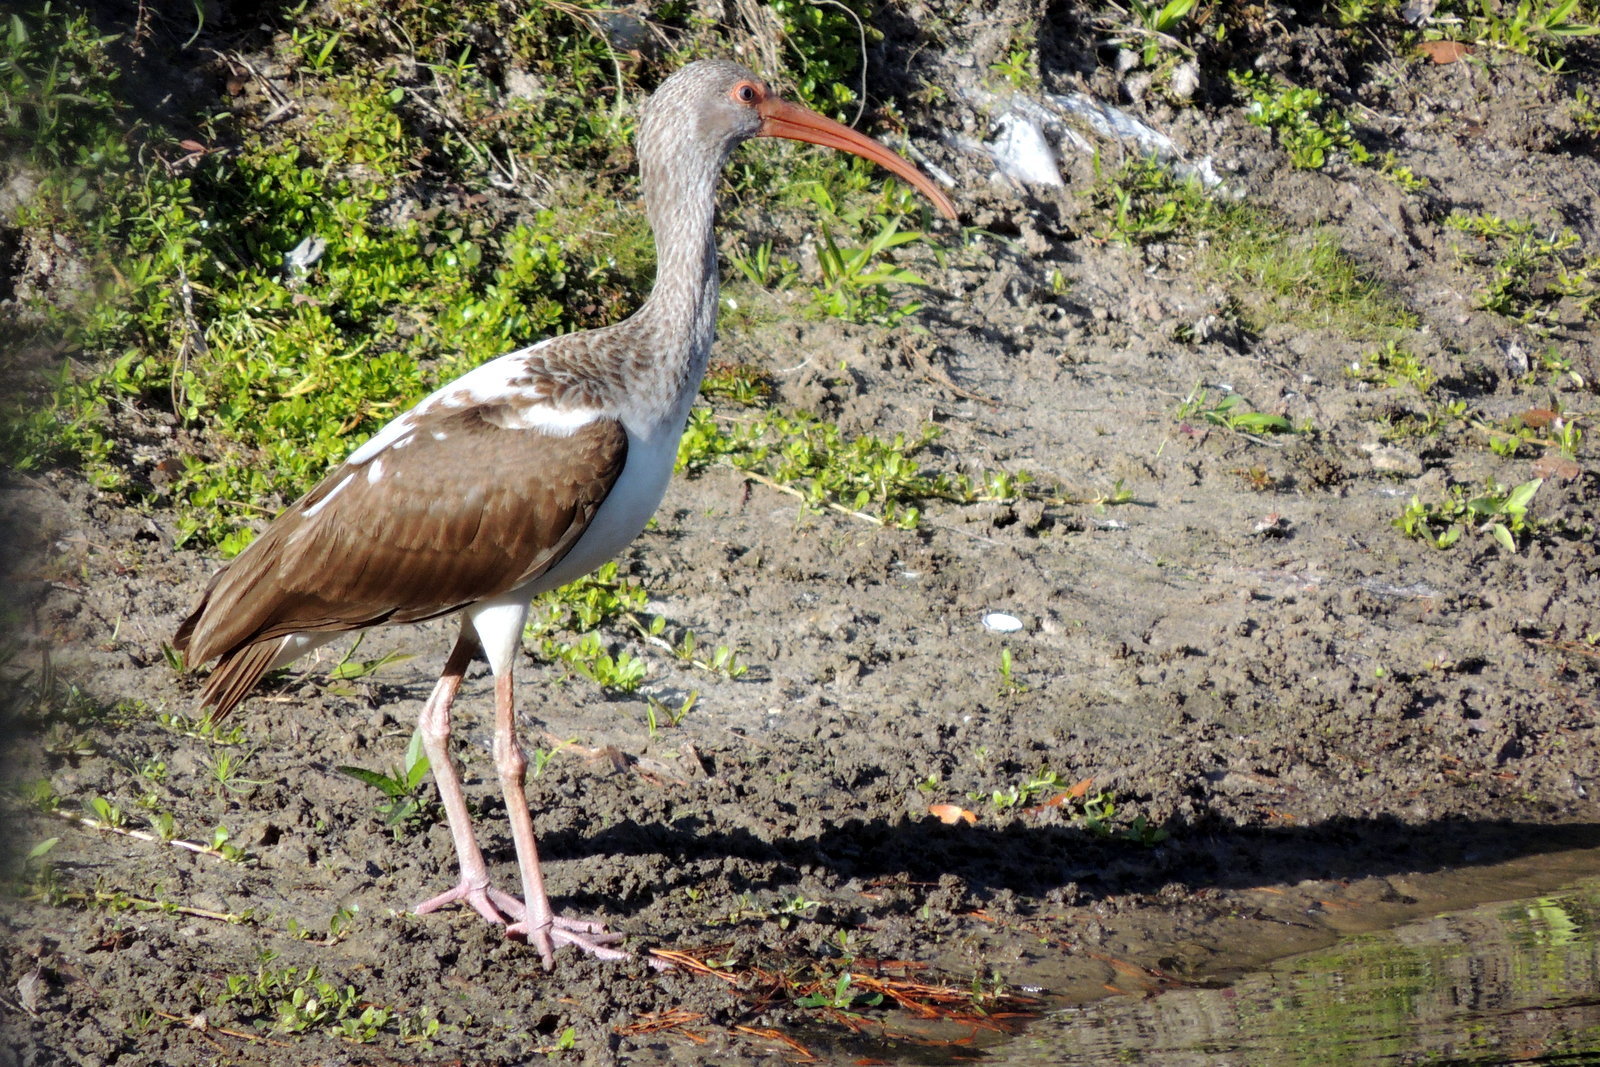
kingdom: Animalia
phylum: Chordata
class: Aves
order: Pelecaniformes
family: Threskiornithidae
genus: Eudocimus
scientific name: Eudocimus albus
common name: White ibis
